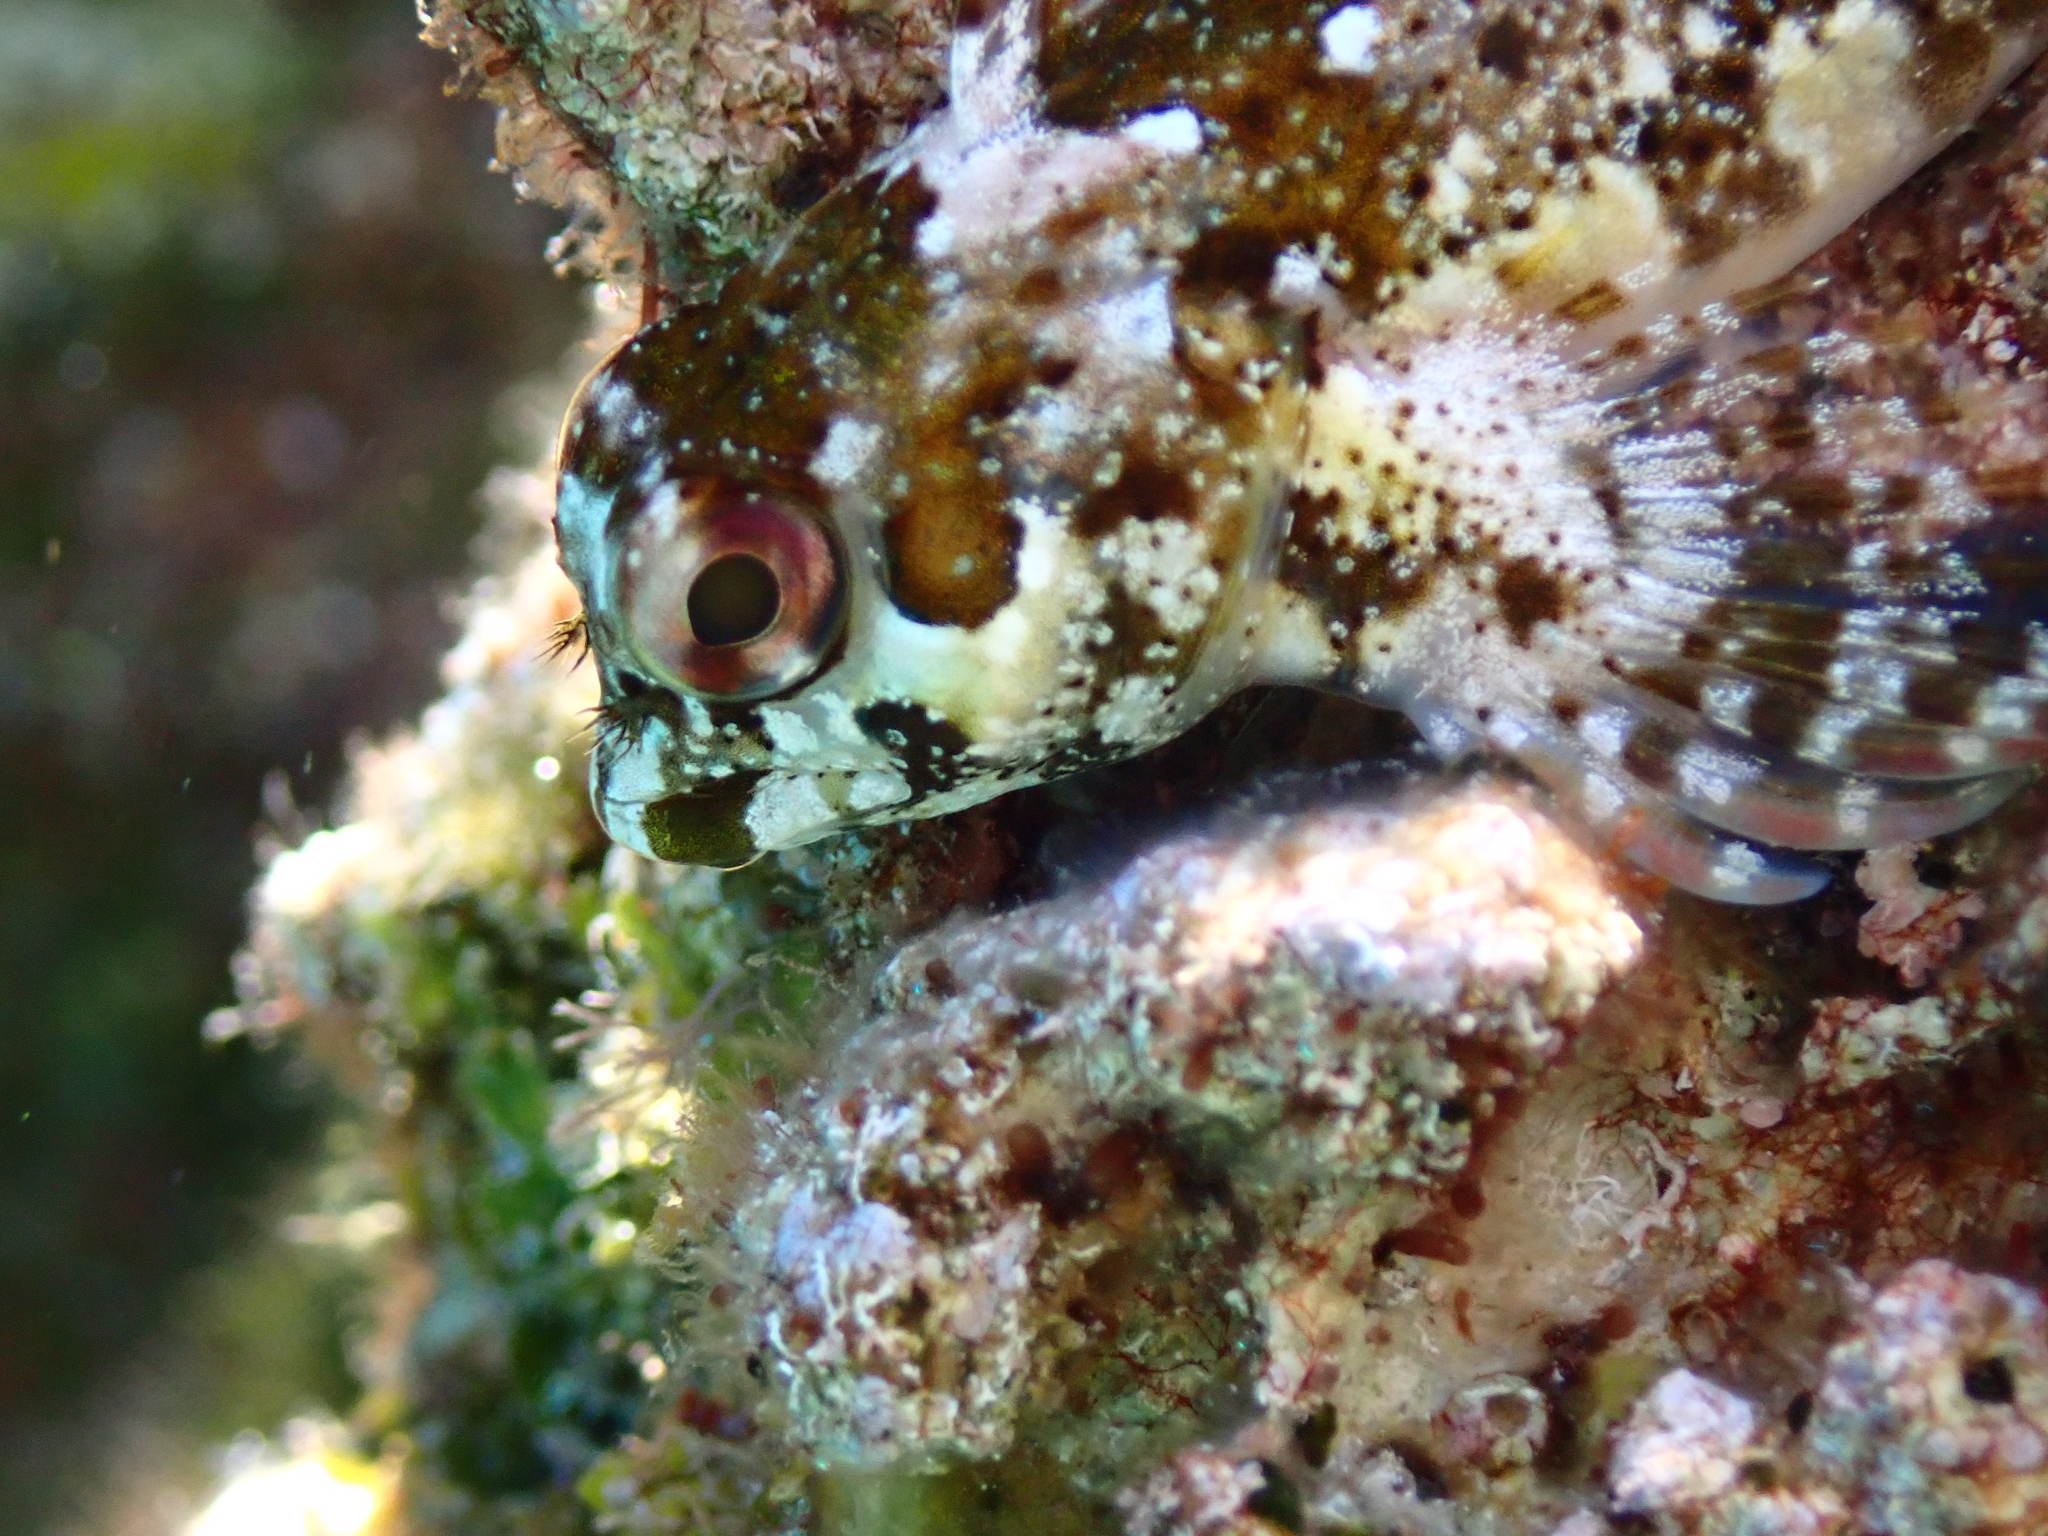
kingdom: Animalia
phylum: Chordata
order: Perciformes
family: Blenniidae
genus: Lipophrys
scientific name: Lipophrys trigloides
